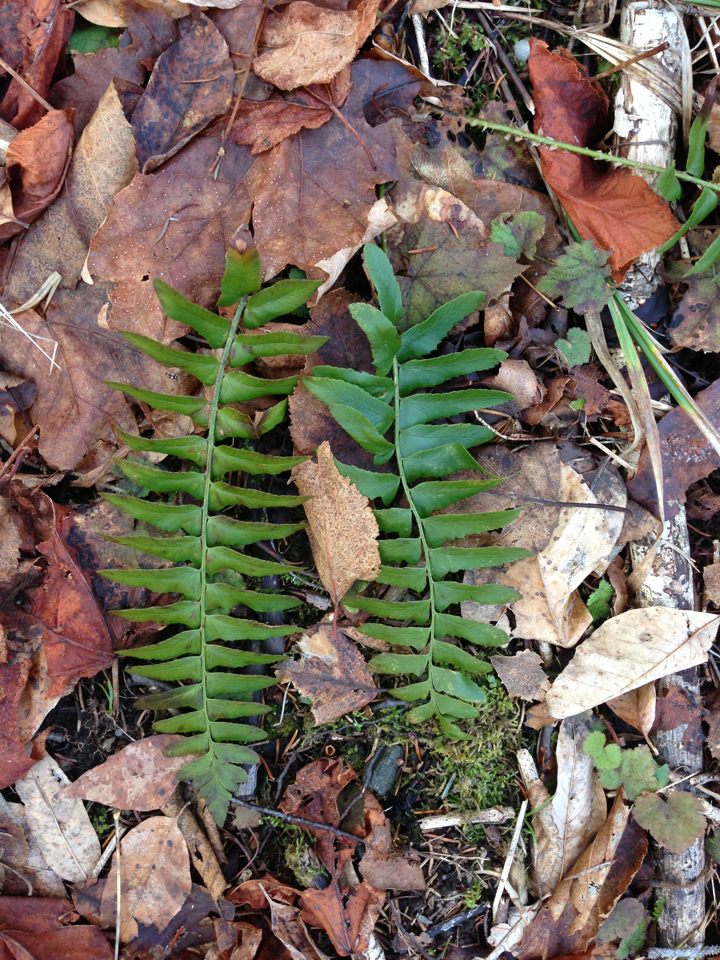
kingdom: Plantae
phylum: Tracheophyta
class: Polypodiopsida
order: Polypodiales
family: Dryopteridaceae
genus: Polystichum
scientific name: Polystichum acrostichoides
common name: Christmas fern
